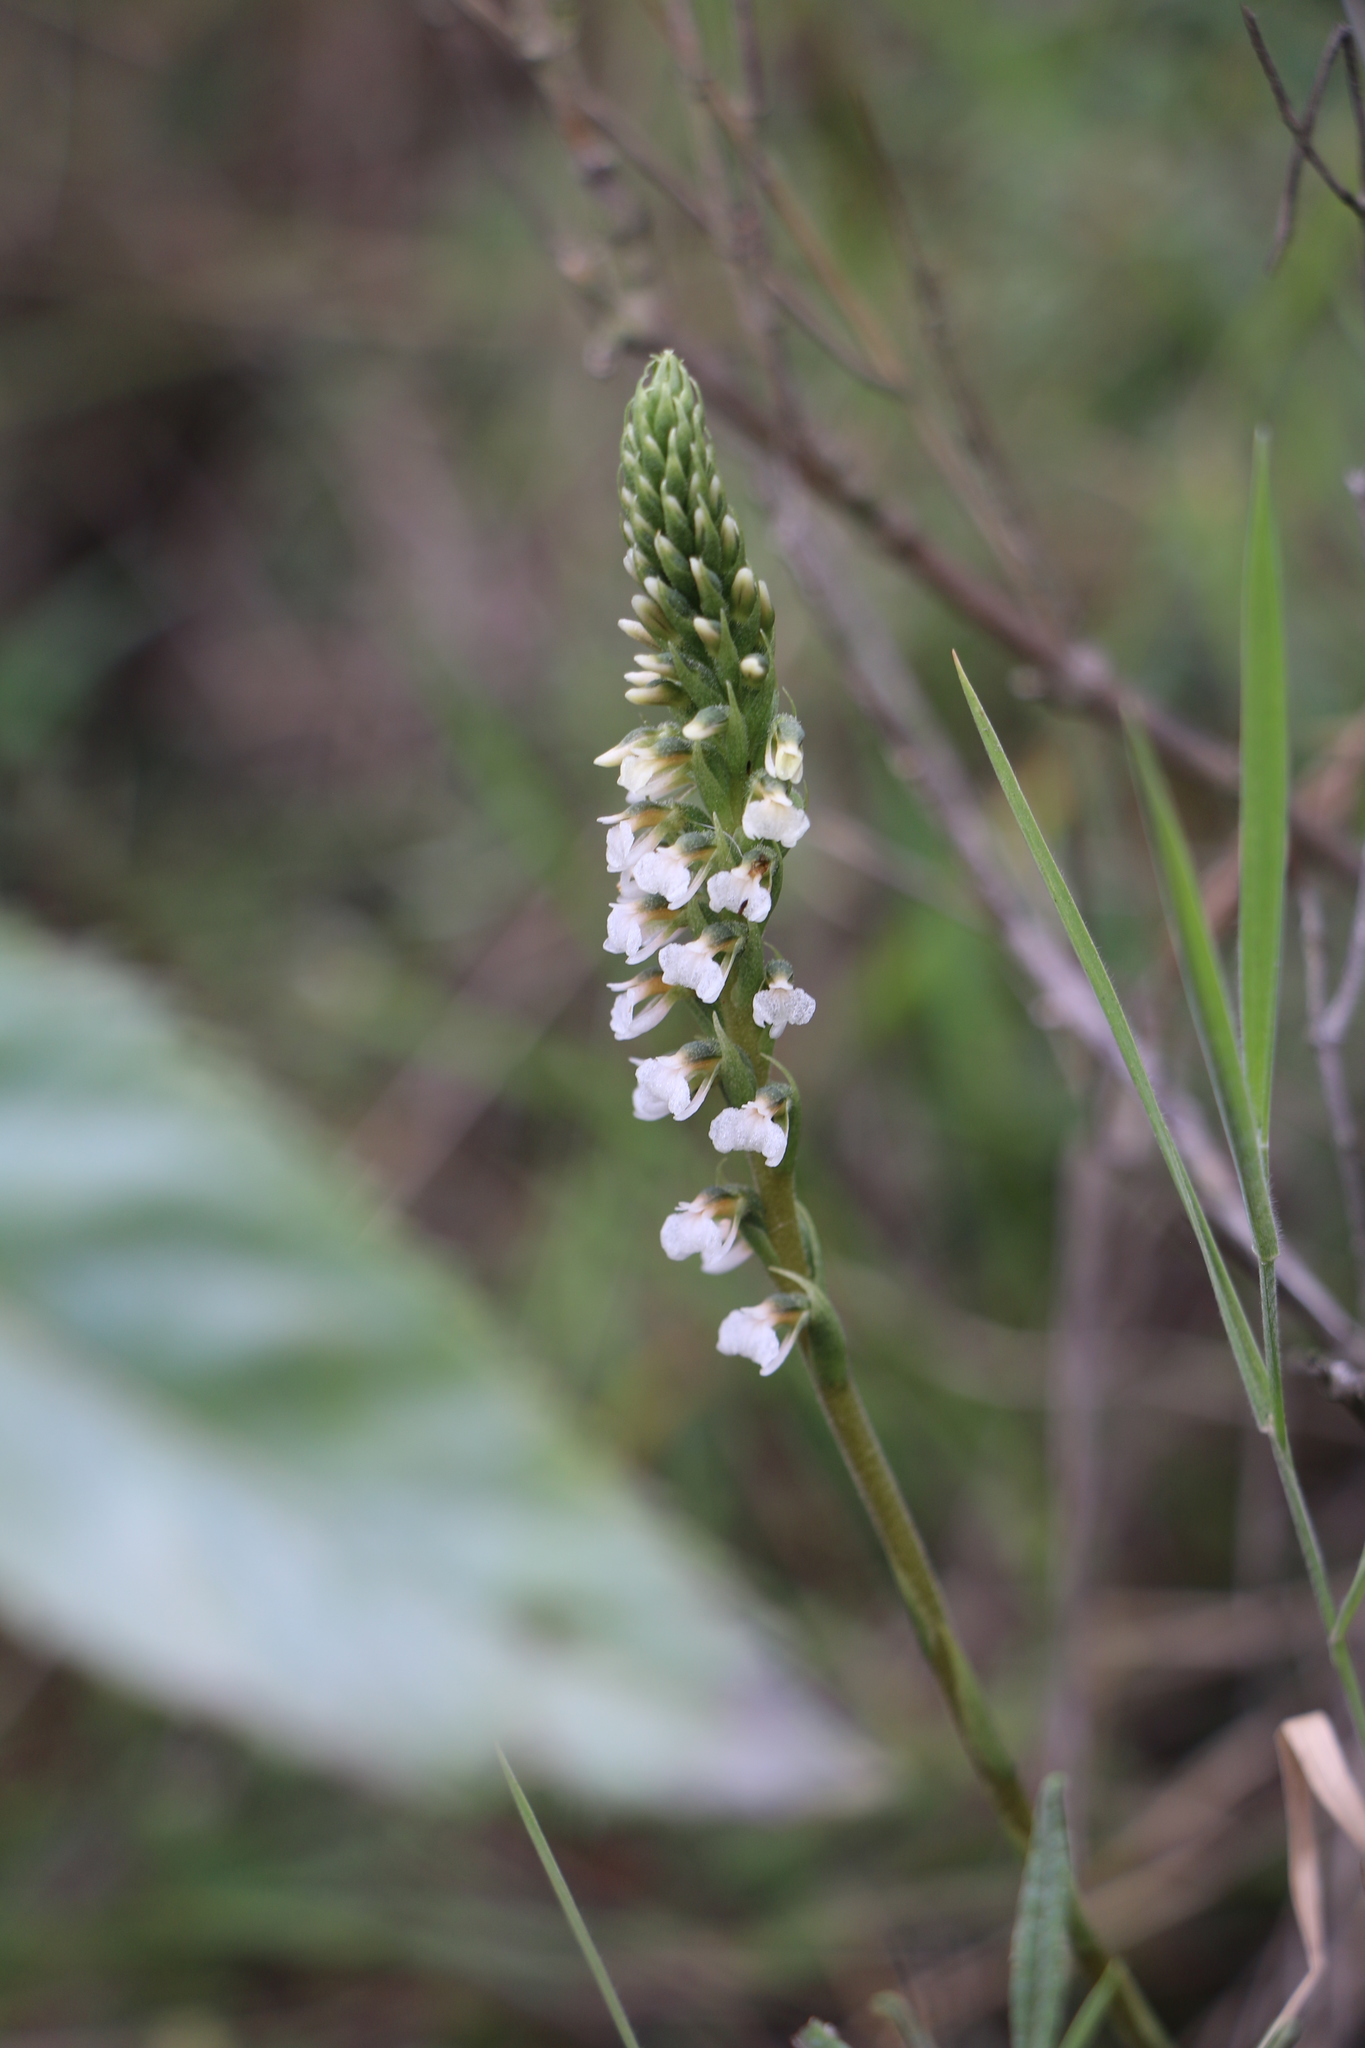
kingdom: Plantae
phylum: Tracheophyta
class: Liliopsida
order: Asparagales
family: Orchidaceae
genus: Cyclopogon
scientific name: Cyclopogon peruvianus
